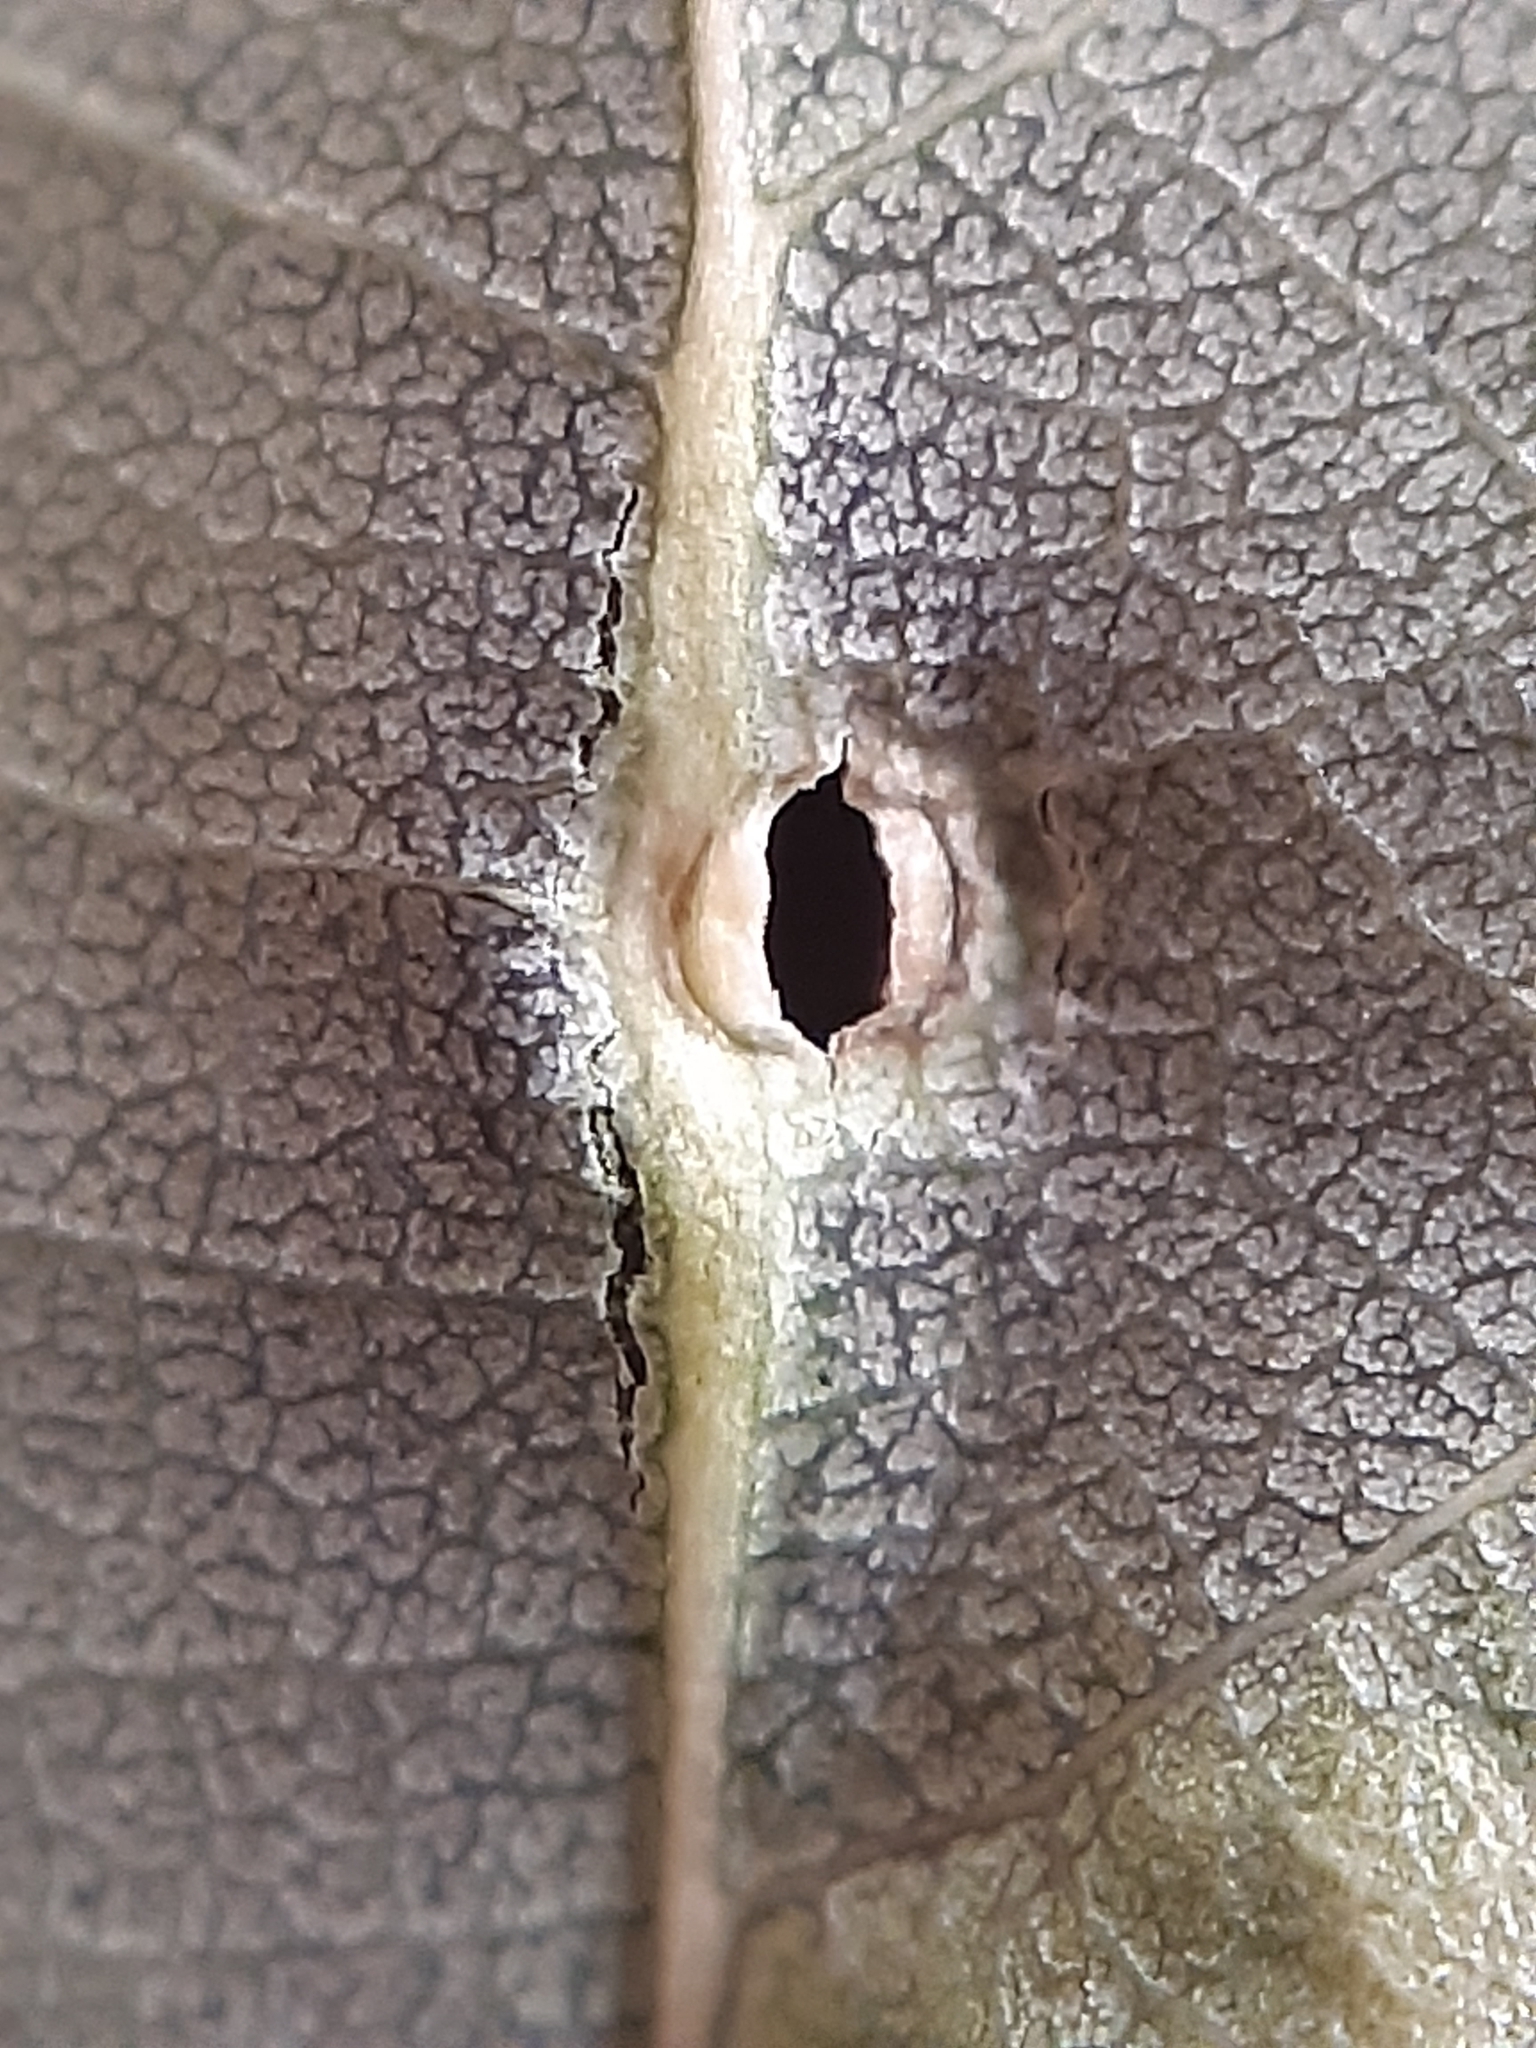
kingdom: Animalia
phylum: Arthropoda
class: Insecta
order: Diptera
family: Cecidomyiidae
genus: Harmandiola
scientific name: Harmandiola tremulae
